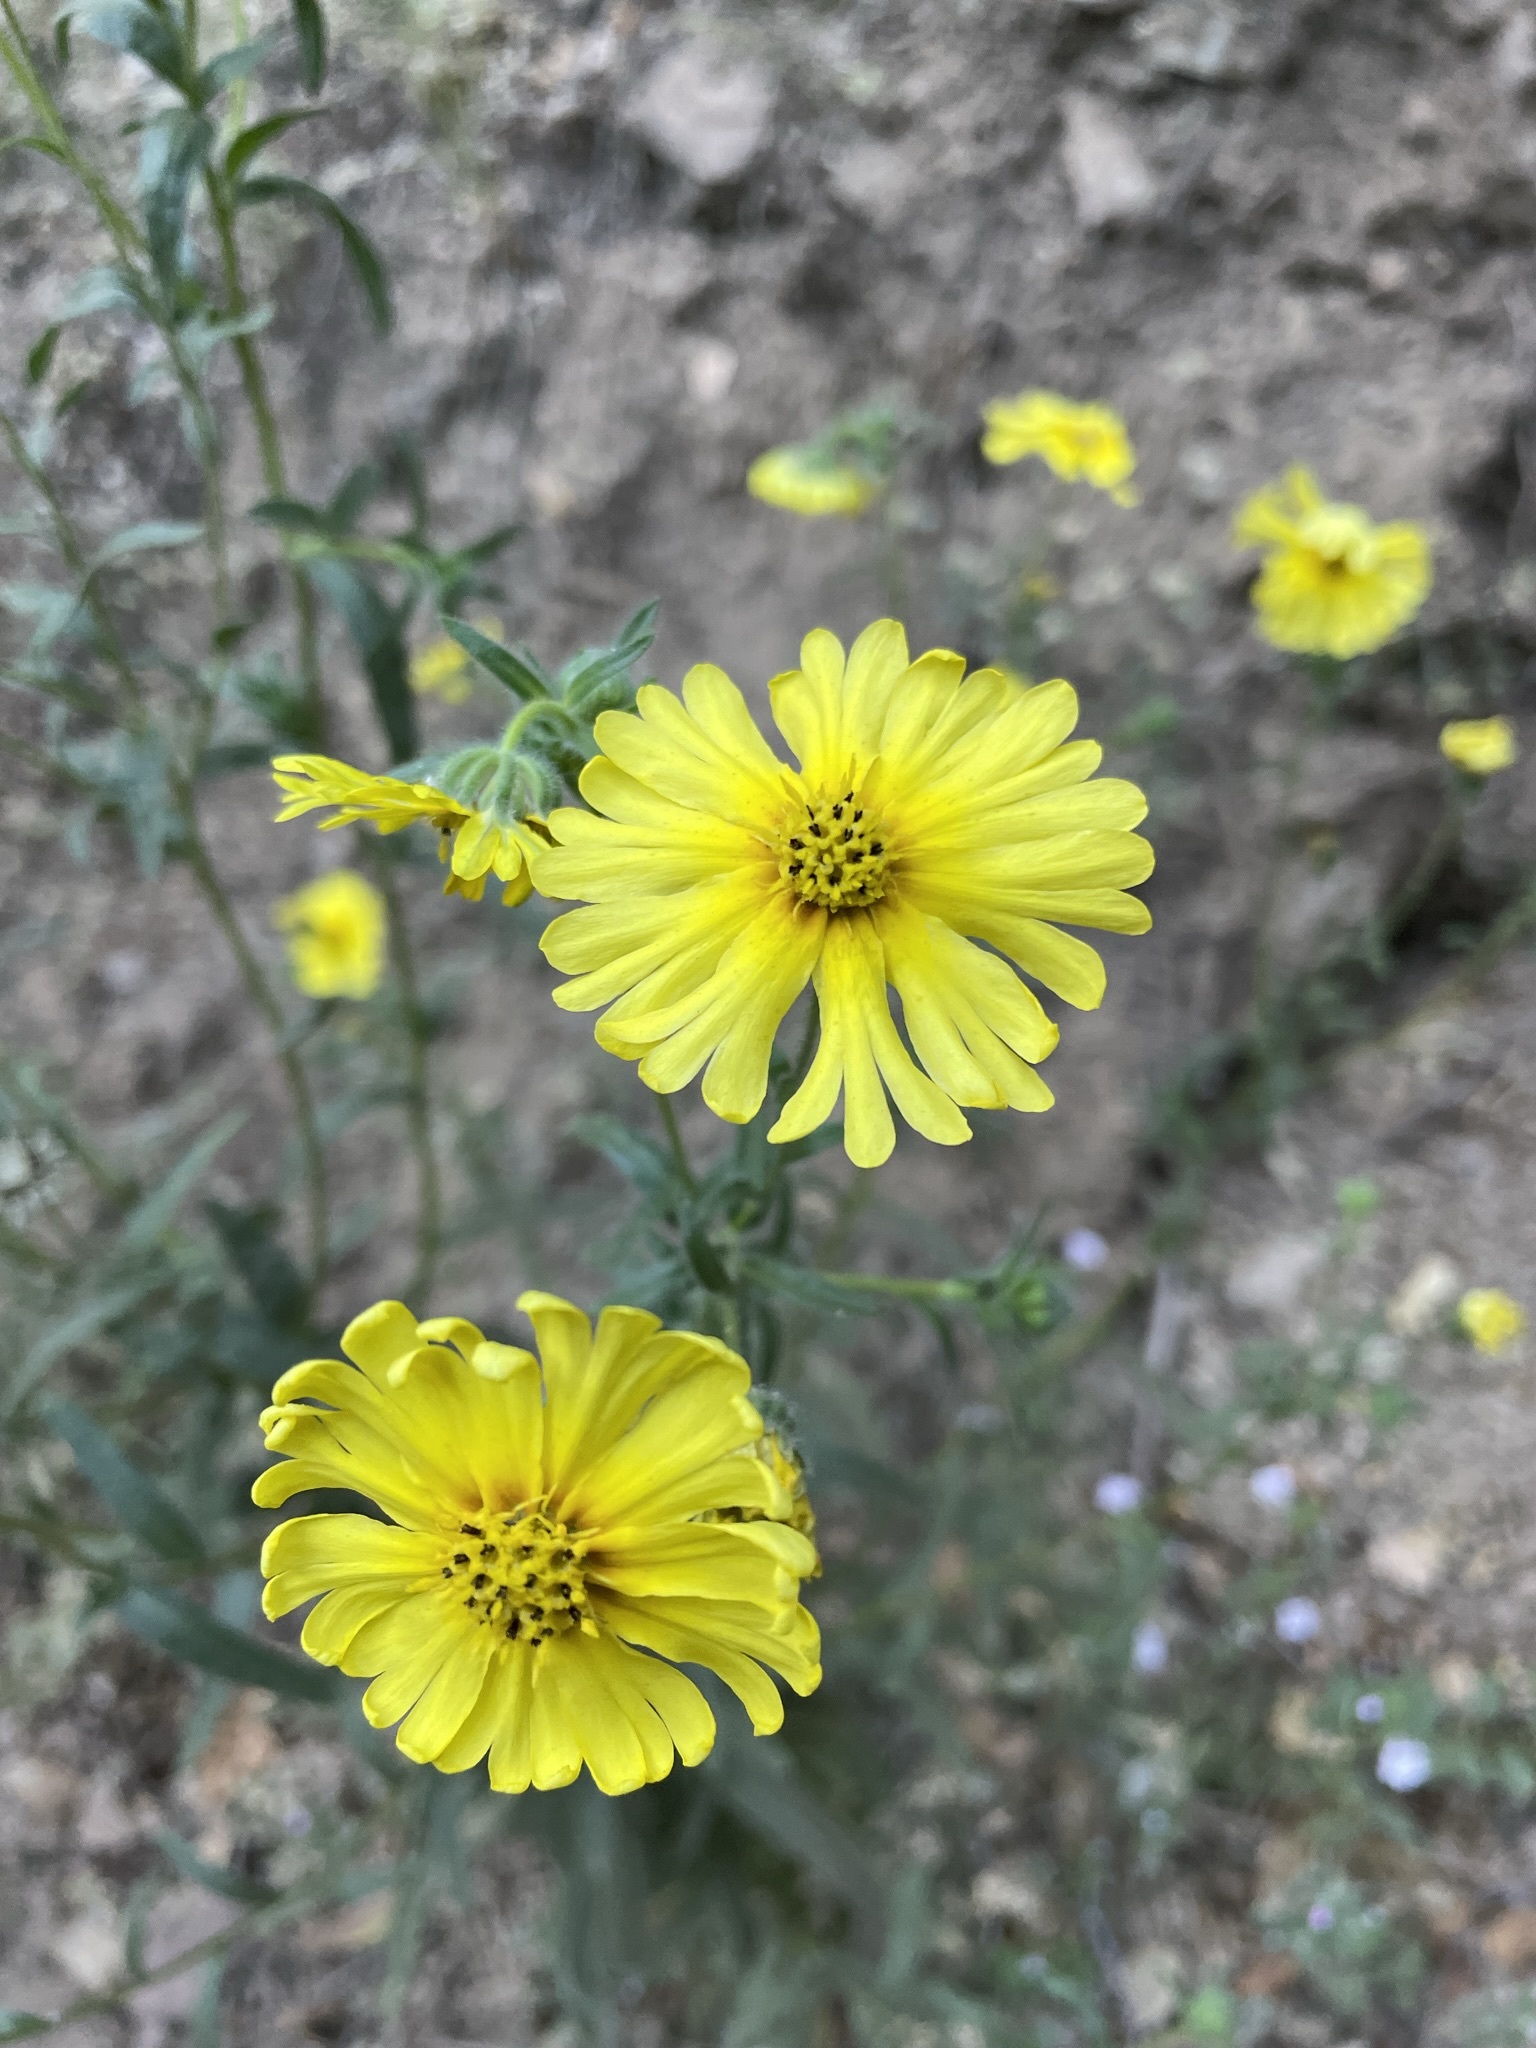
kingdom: Plantae
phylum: Tracheophyta
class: Magnoliopsida
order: Asterales
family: Asteraceae
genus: Madia
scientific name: Madia elegans
